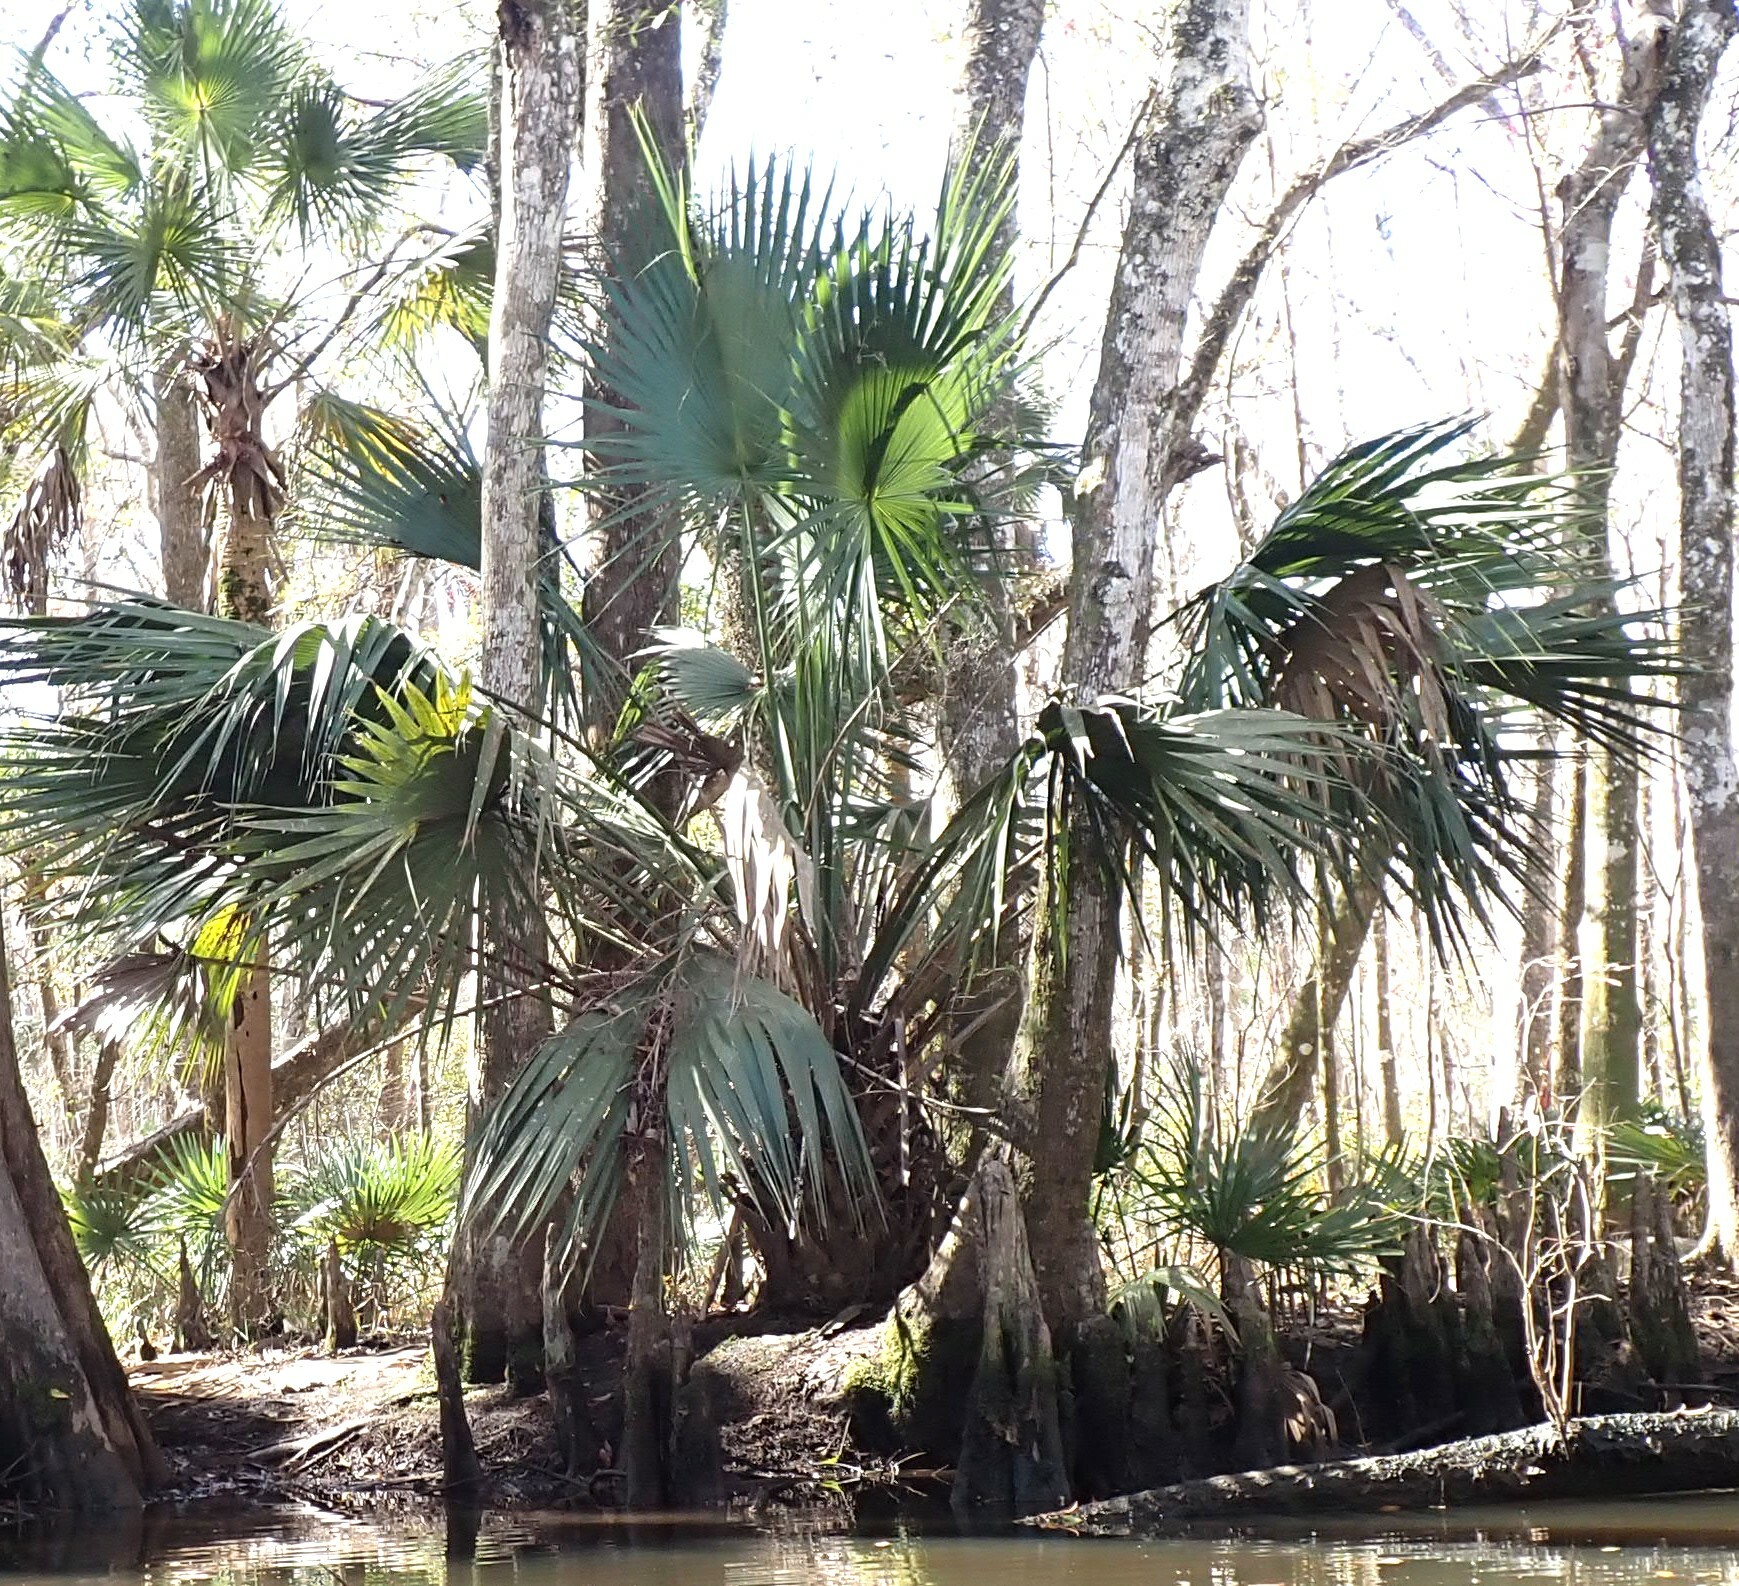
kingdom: Plantae
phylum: Tracheophyta
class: Liliopsida
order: Arecales
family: Arecaceae
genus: Sabal
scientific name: Sabal palmetto
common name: Blue palmetto
